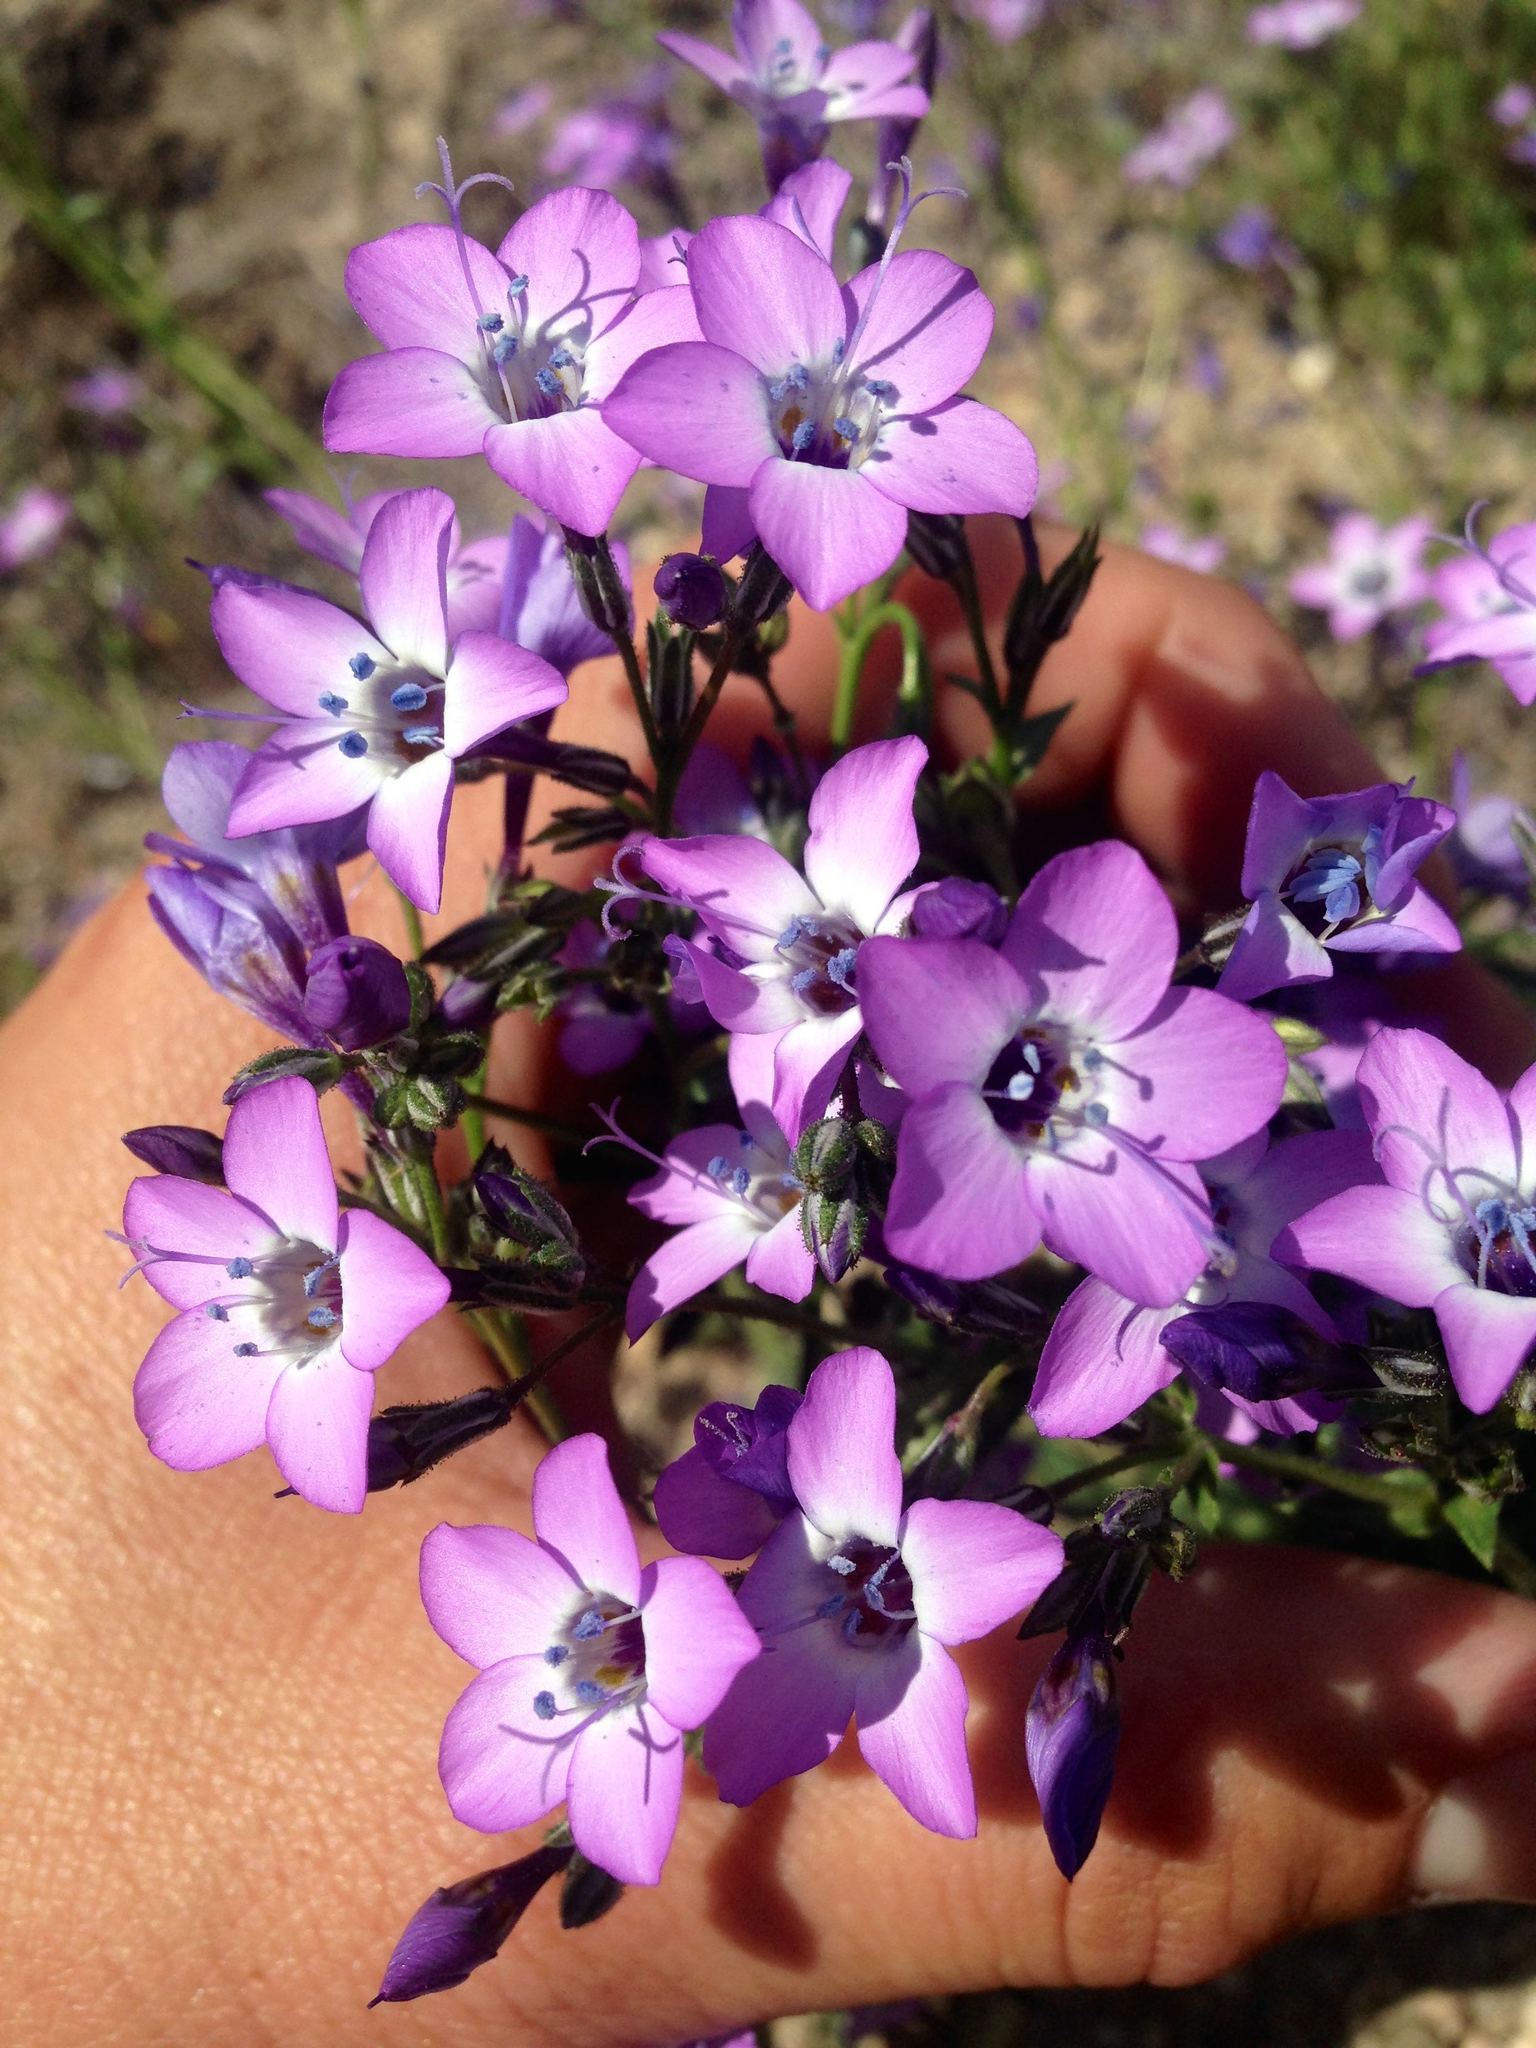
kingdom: Plantae
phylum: Tracheophyta
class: Magnoliopsida
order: Ericales
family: Polemoniaceae
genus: Gilia
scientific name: Gilia latiflora
